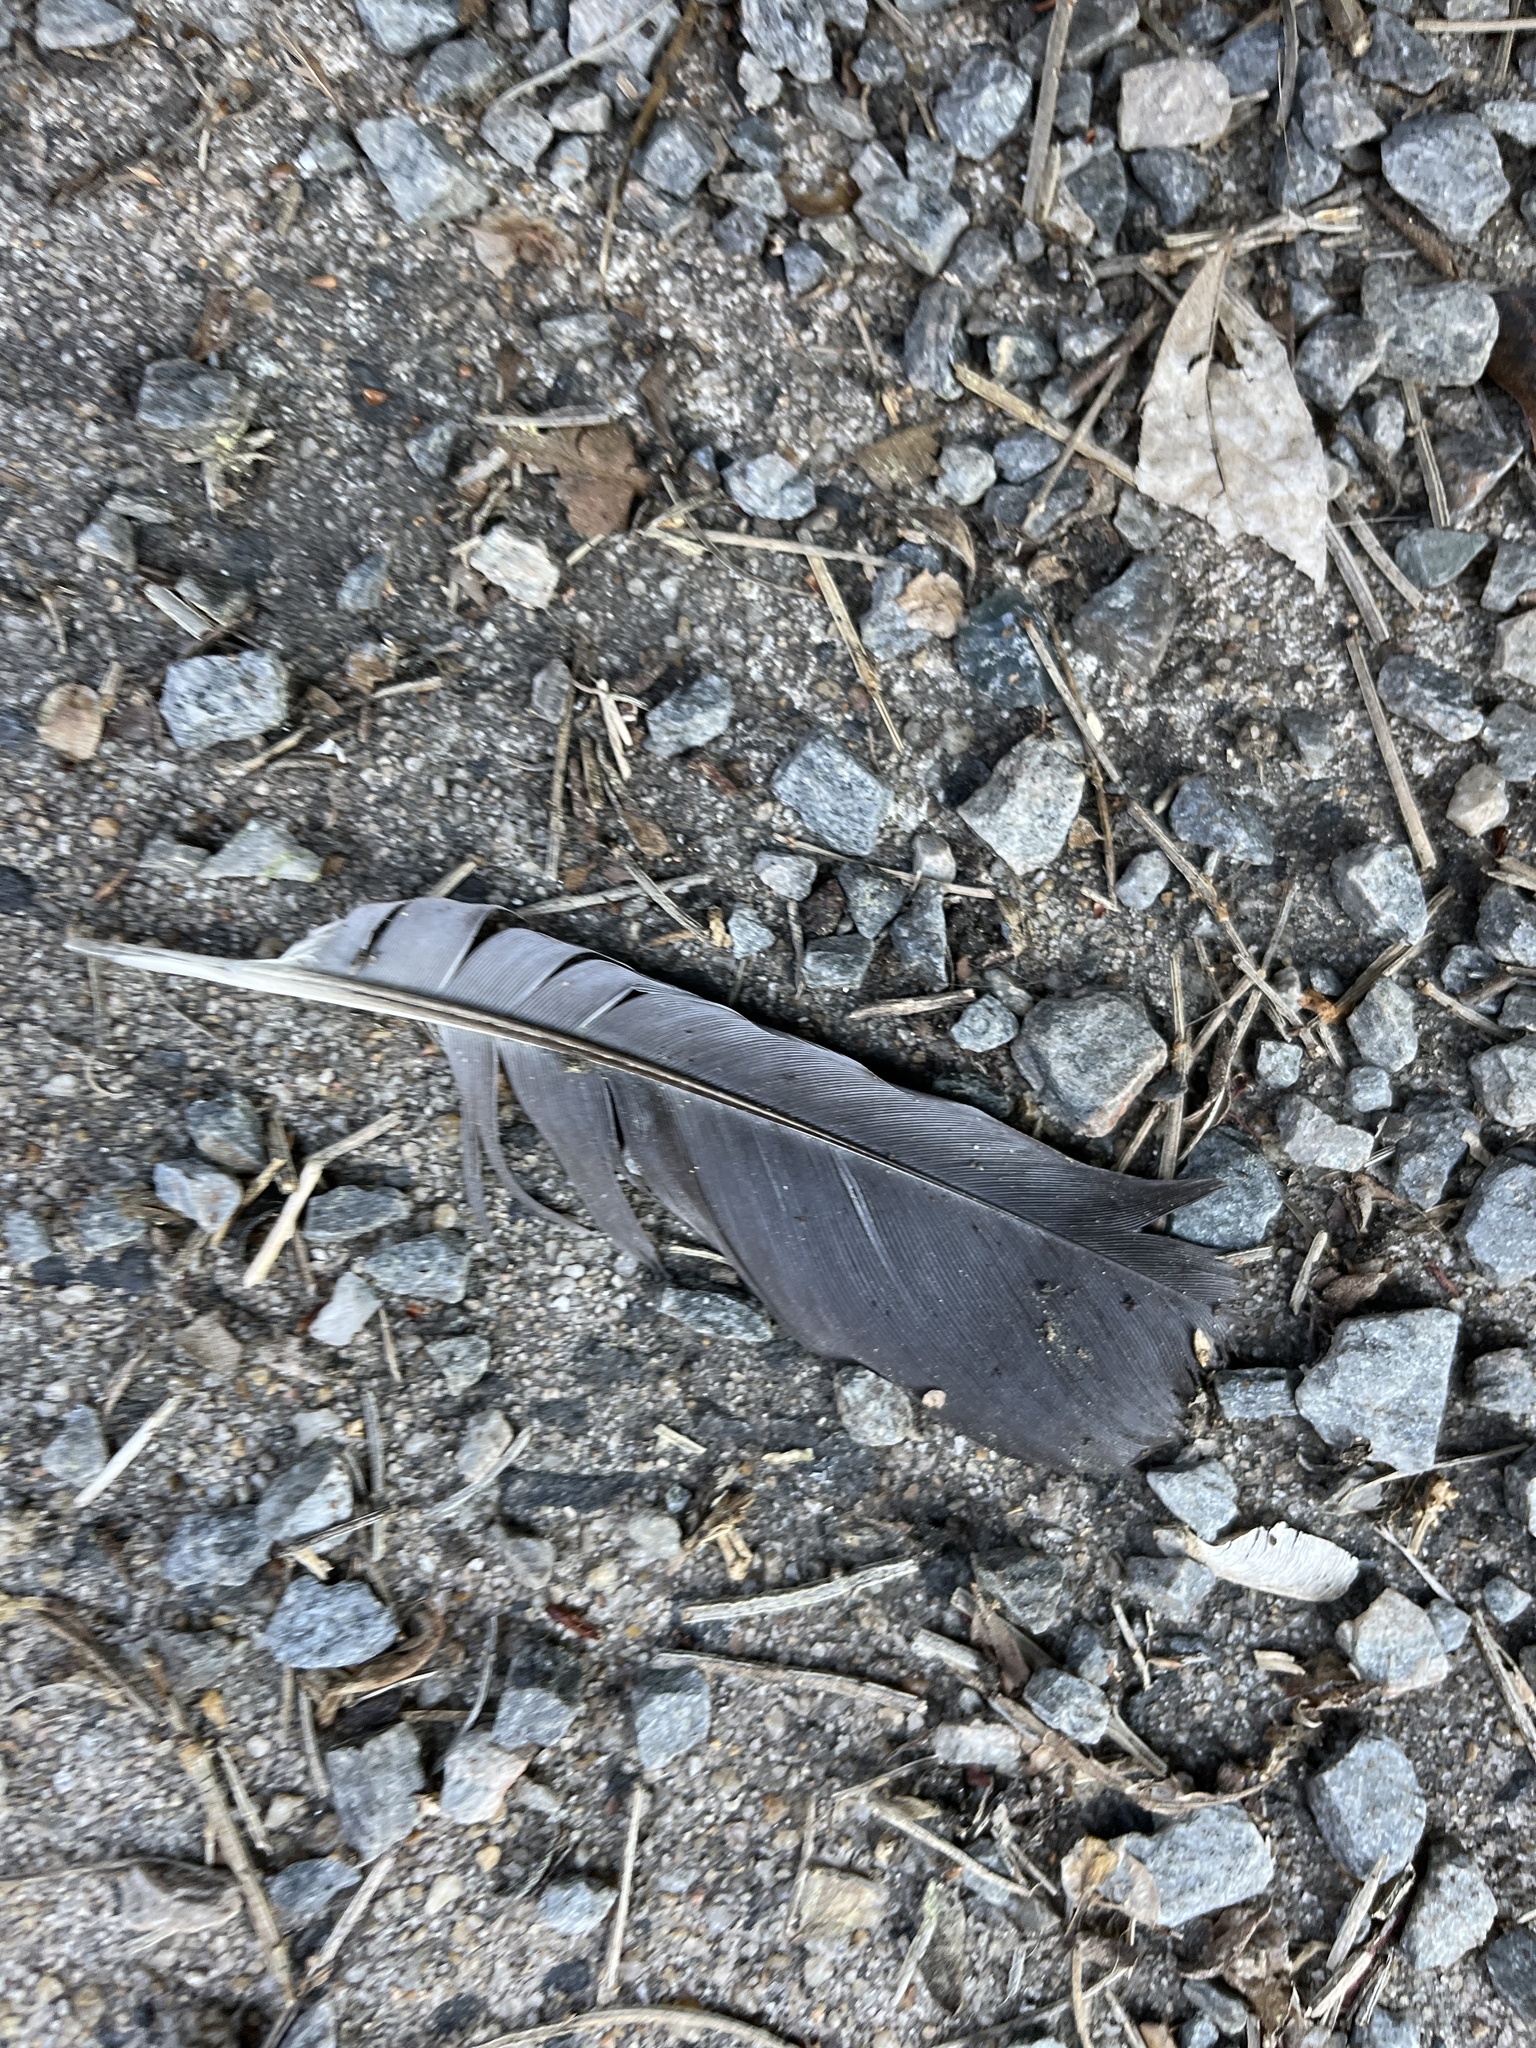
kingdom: Animalia
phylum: Chordata
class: Aves
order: Columbiformes
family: Columbidae
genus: Columba
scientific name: Columba livia
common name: Rock pigeon
